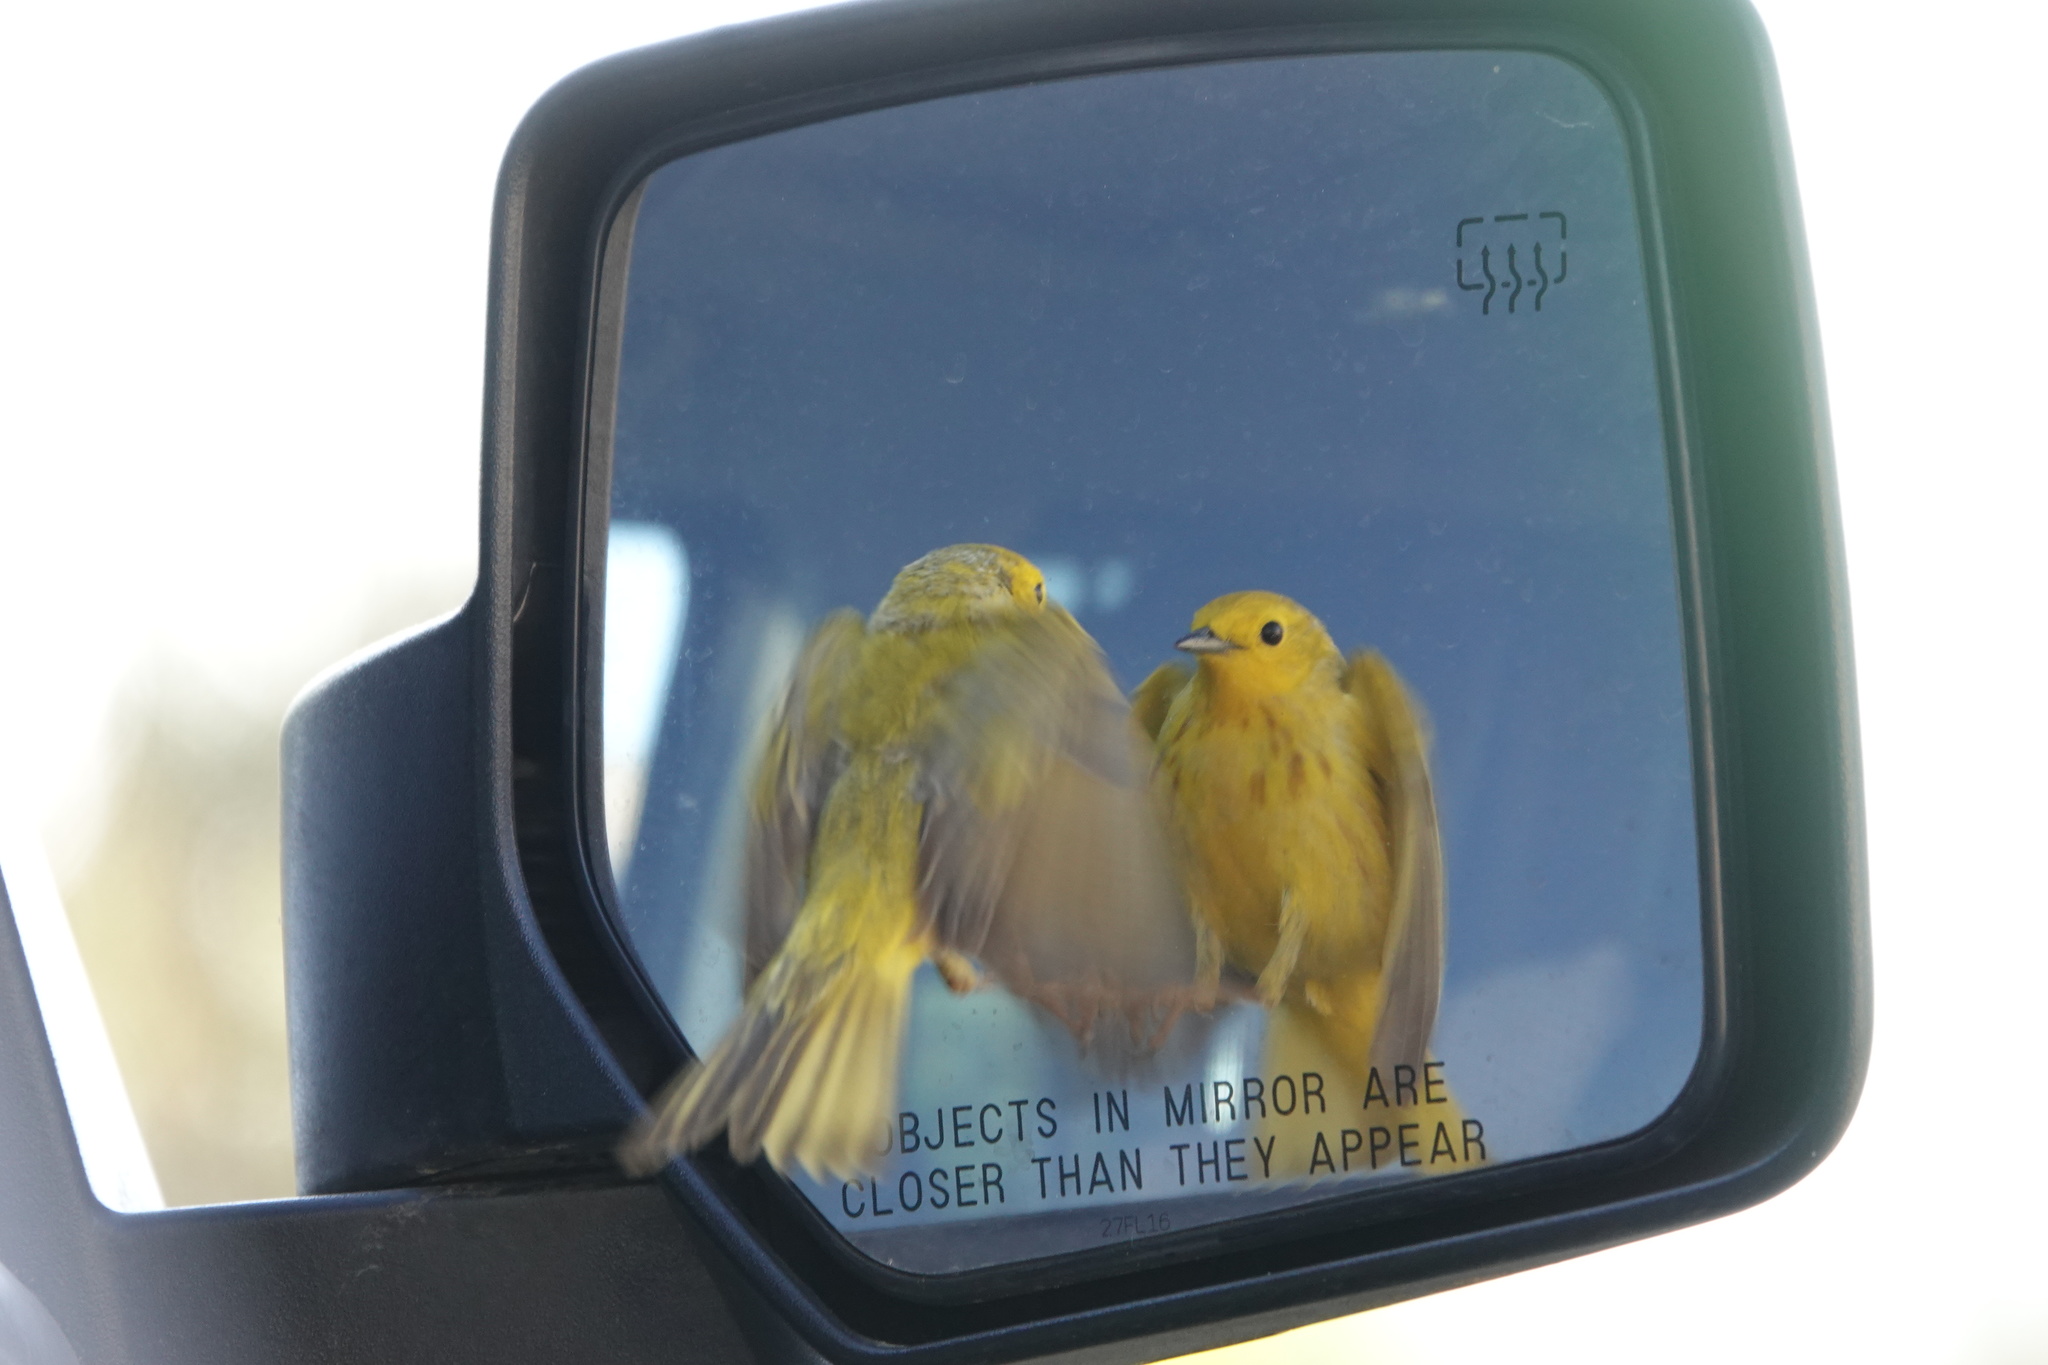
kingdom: Animalia
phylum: Chordata
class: Aves
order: Passeriformes
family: Parulidae
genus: Setophaga
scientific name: Setophaga petechia
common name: Yellow warbler
